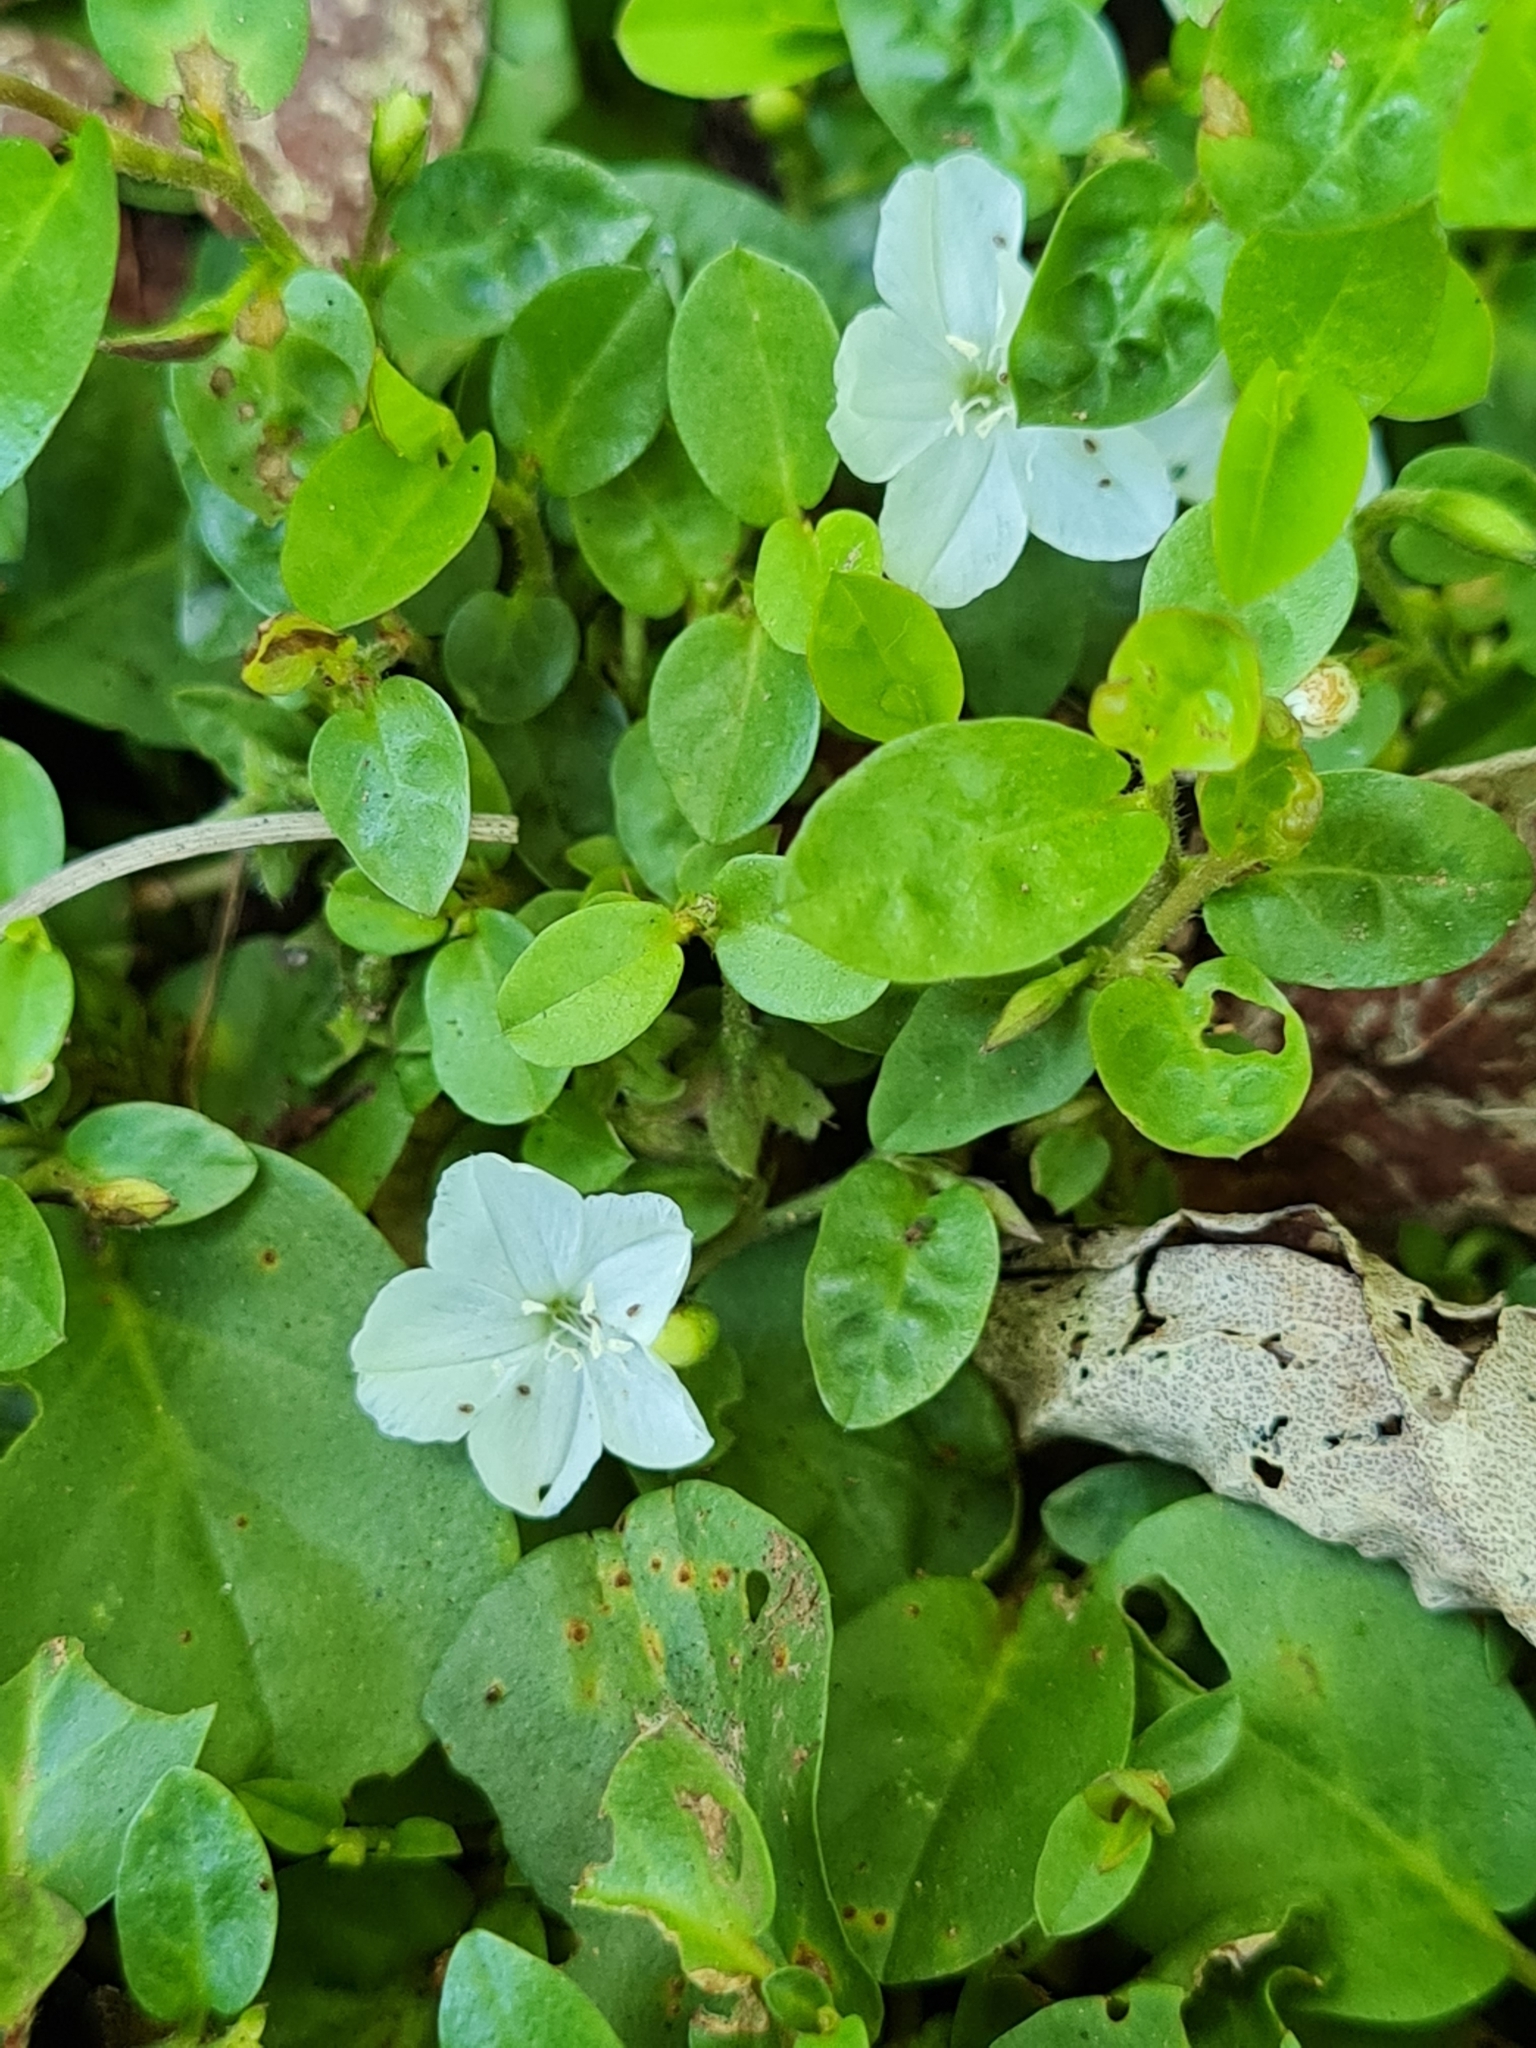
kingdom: Plantae
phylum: Tracheophyta
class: Magnoliopsida
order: Solanales
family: Convolvulaceae
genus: Evolvulus
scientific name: Evolvulus nummularius
